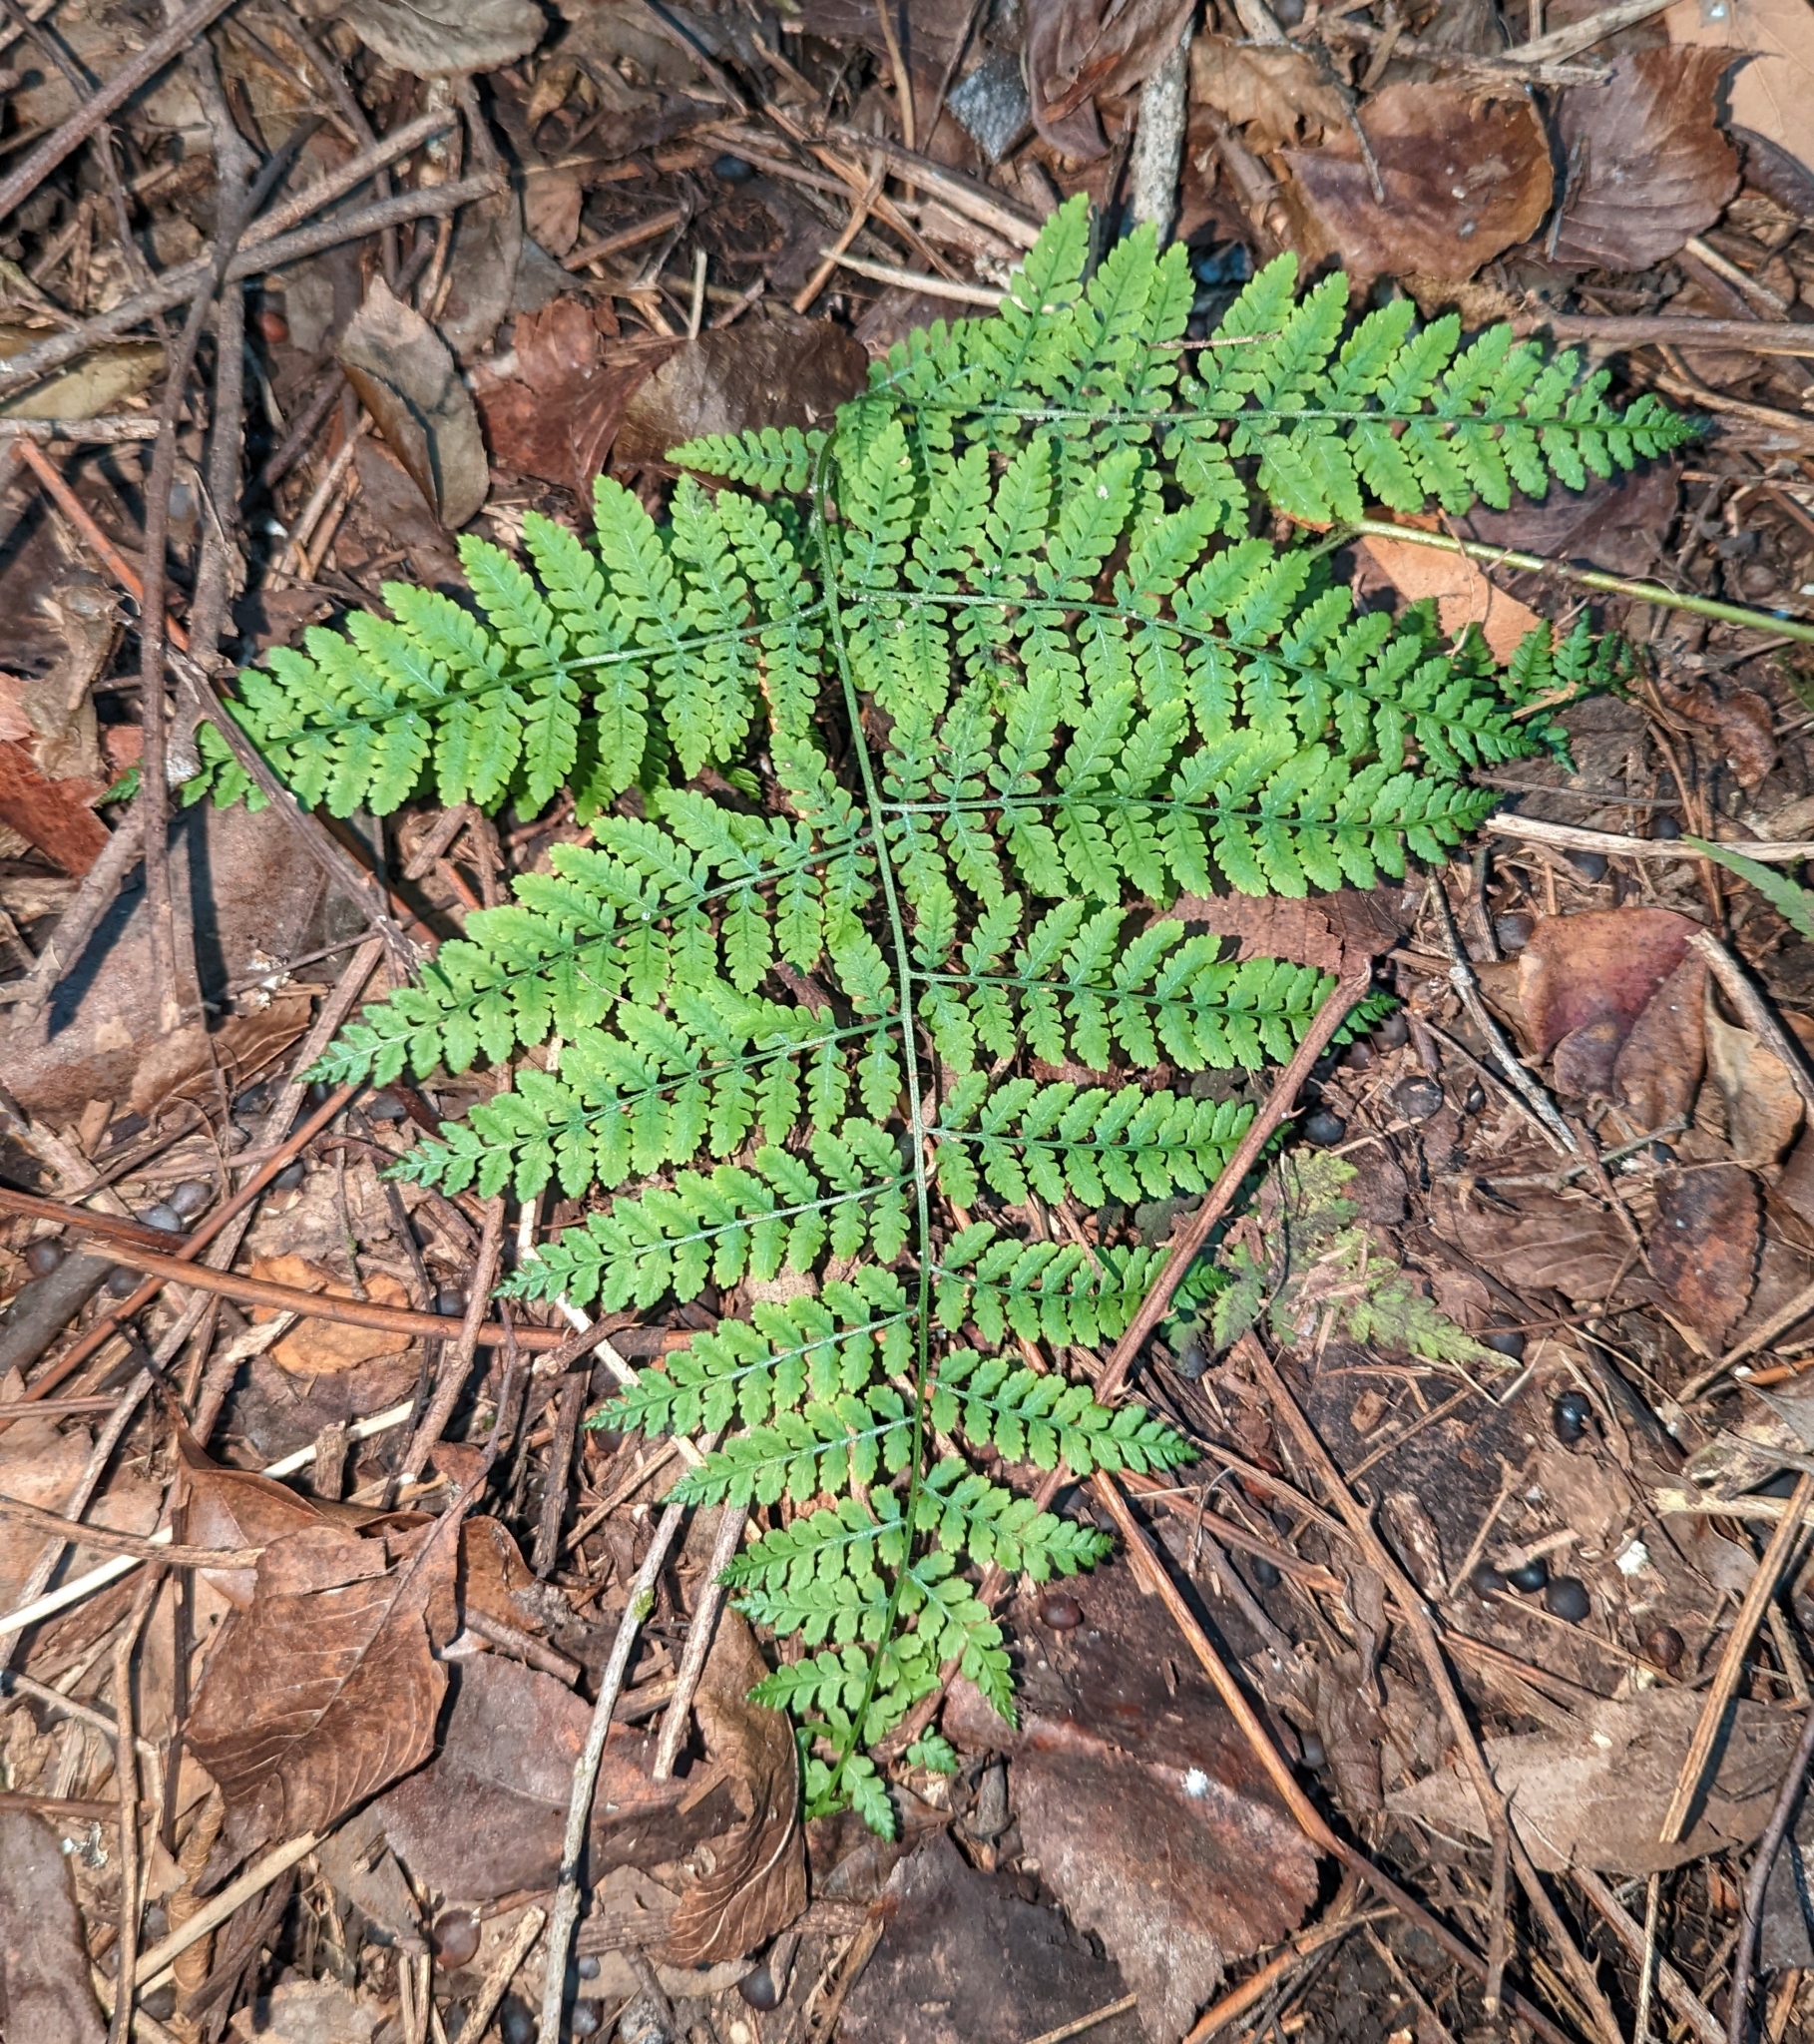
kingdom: Plantae
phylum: Tracheophyta
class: Polypodiopsida
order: Polypodiales
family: Dennstaedtiaceae
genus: Hypolepis
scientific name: Hypolepis repens
